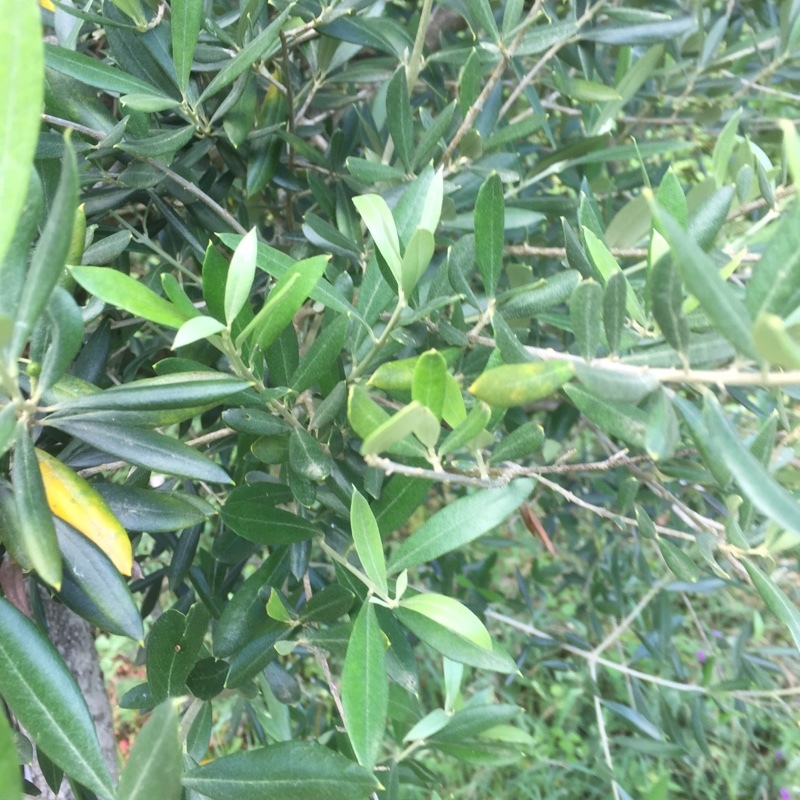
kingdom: Plantae
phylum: Tracheophyta
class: Magnoliopsida
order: Lamiales
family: Oleaceae
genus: Olea
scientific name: Olea europaea
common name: Olive
